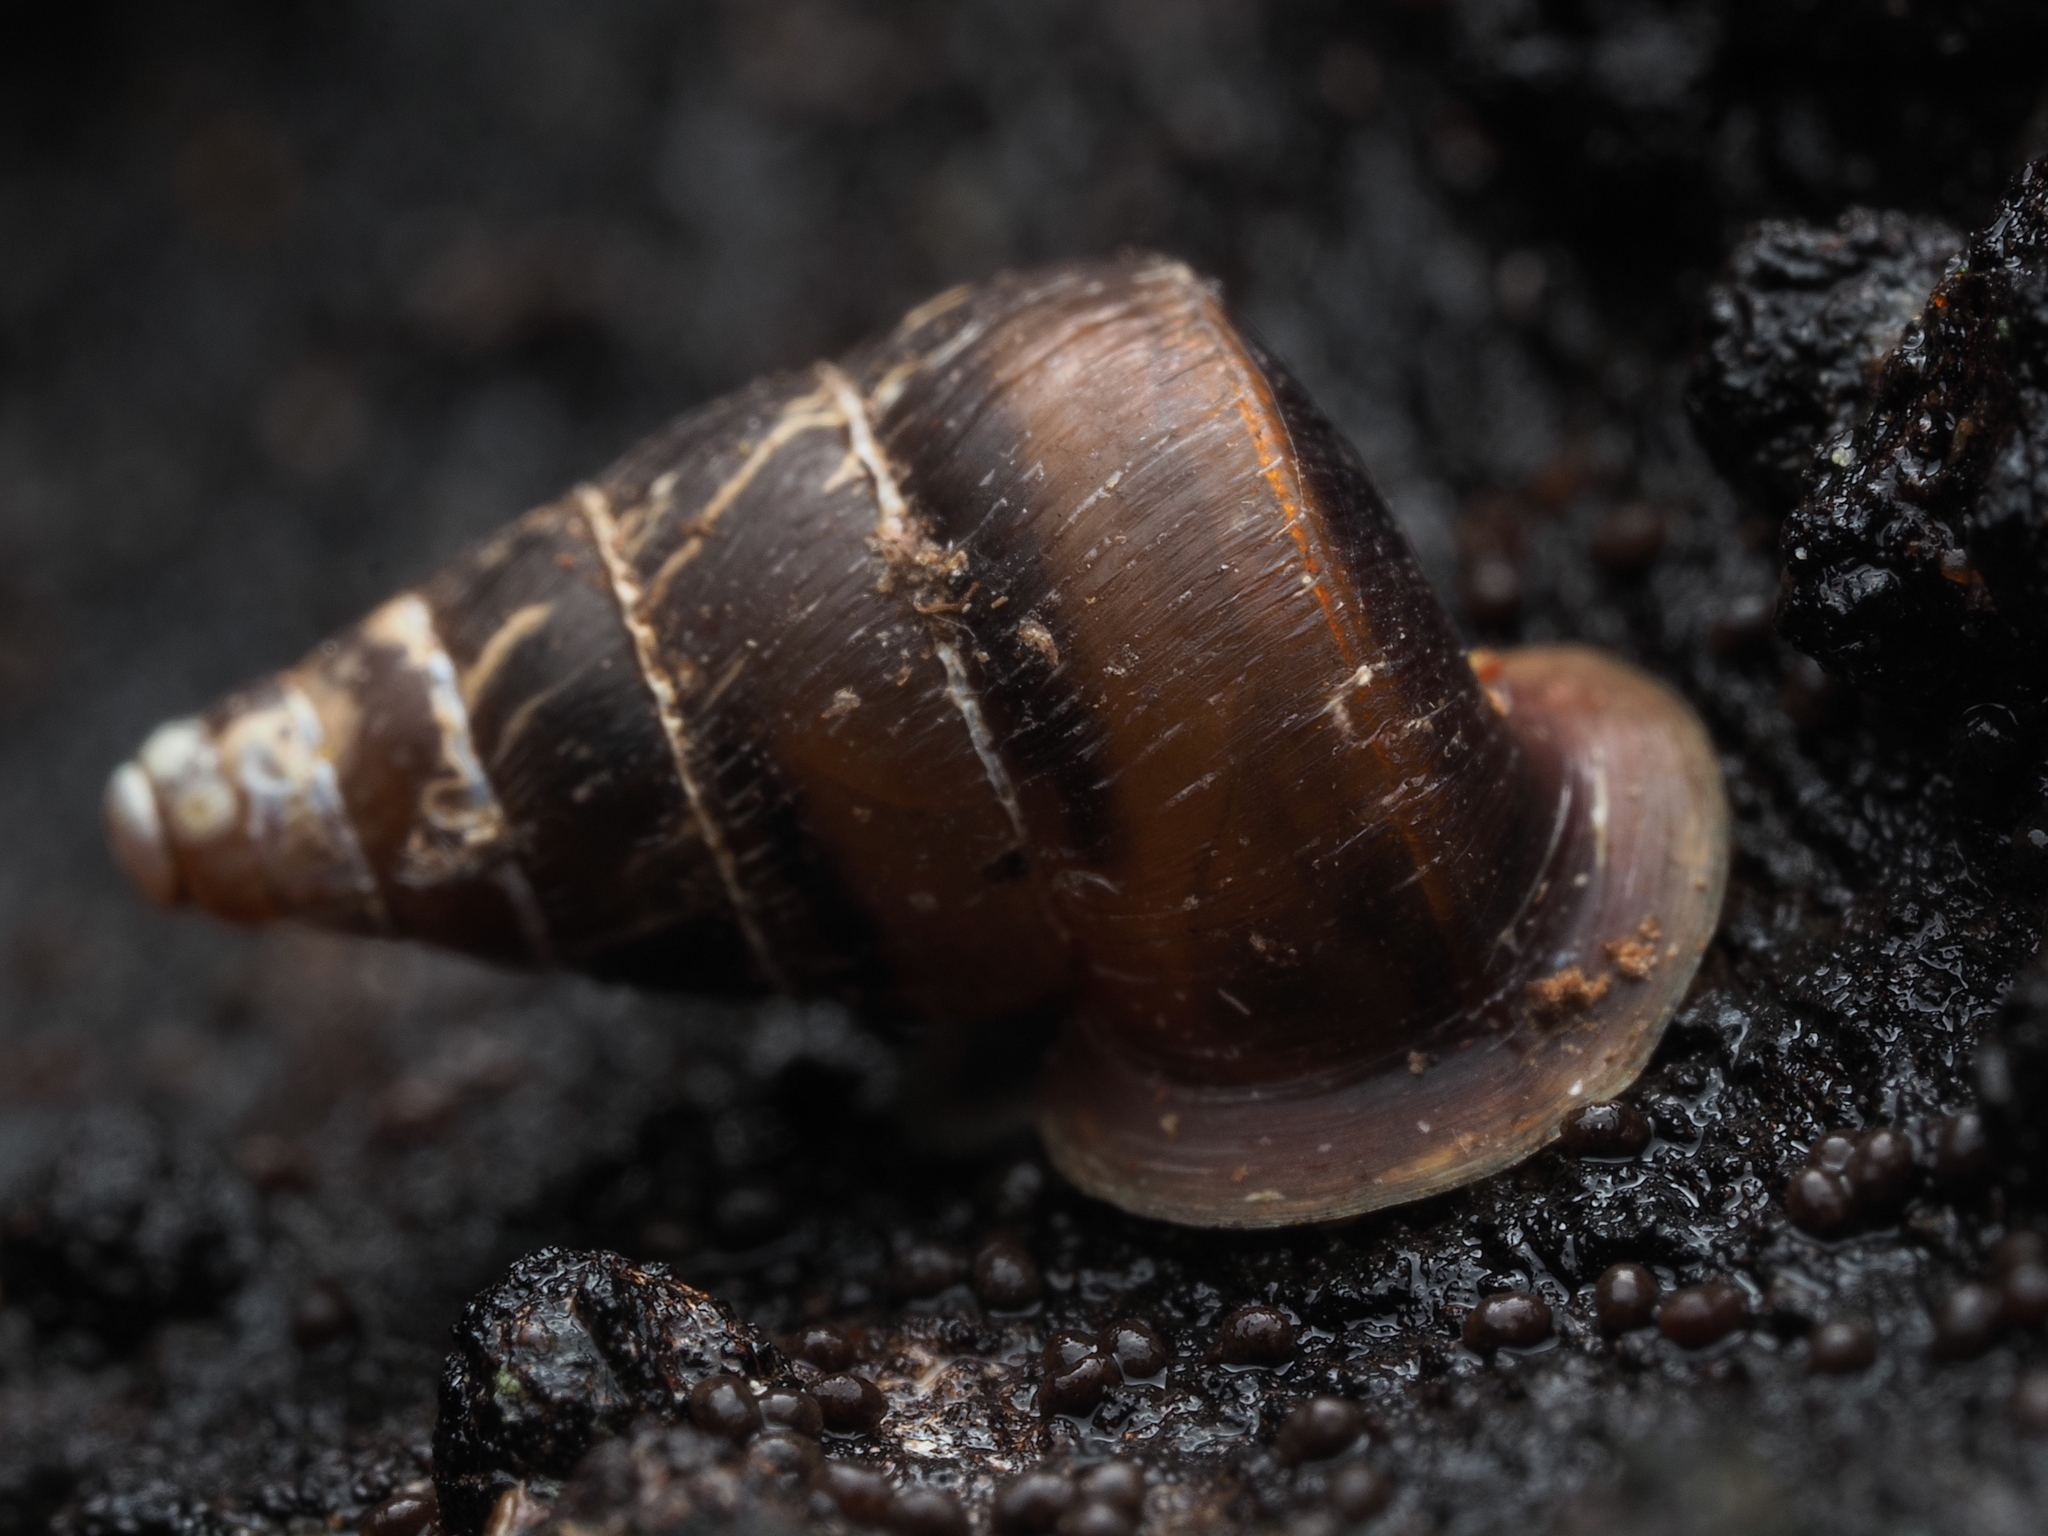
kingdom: Animalia
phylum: Mollusca
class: Gastropoda
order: Architaenioglossa
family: Pupinidae
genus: Liarea
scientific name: Liarea hochstetteri
